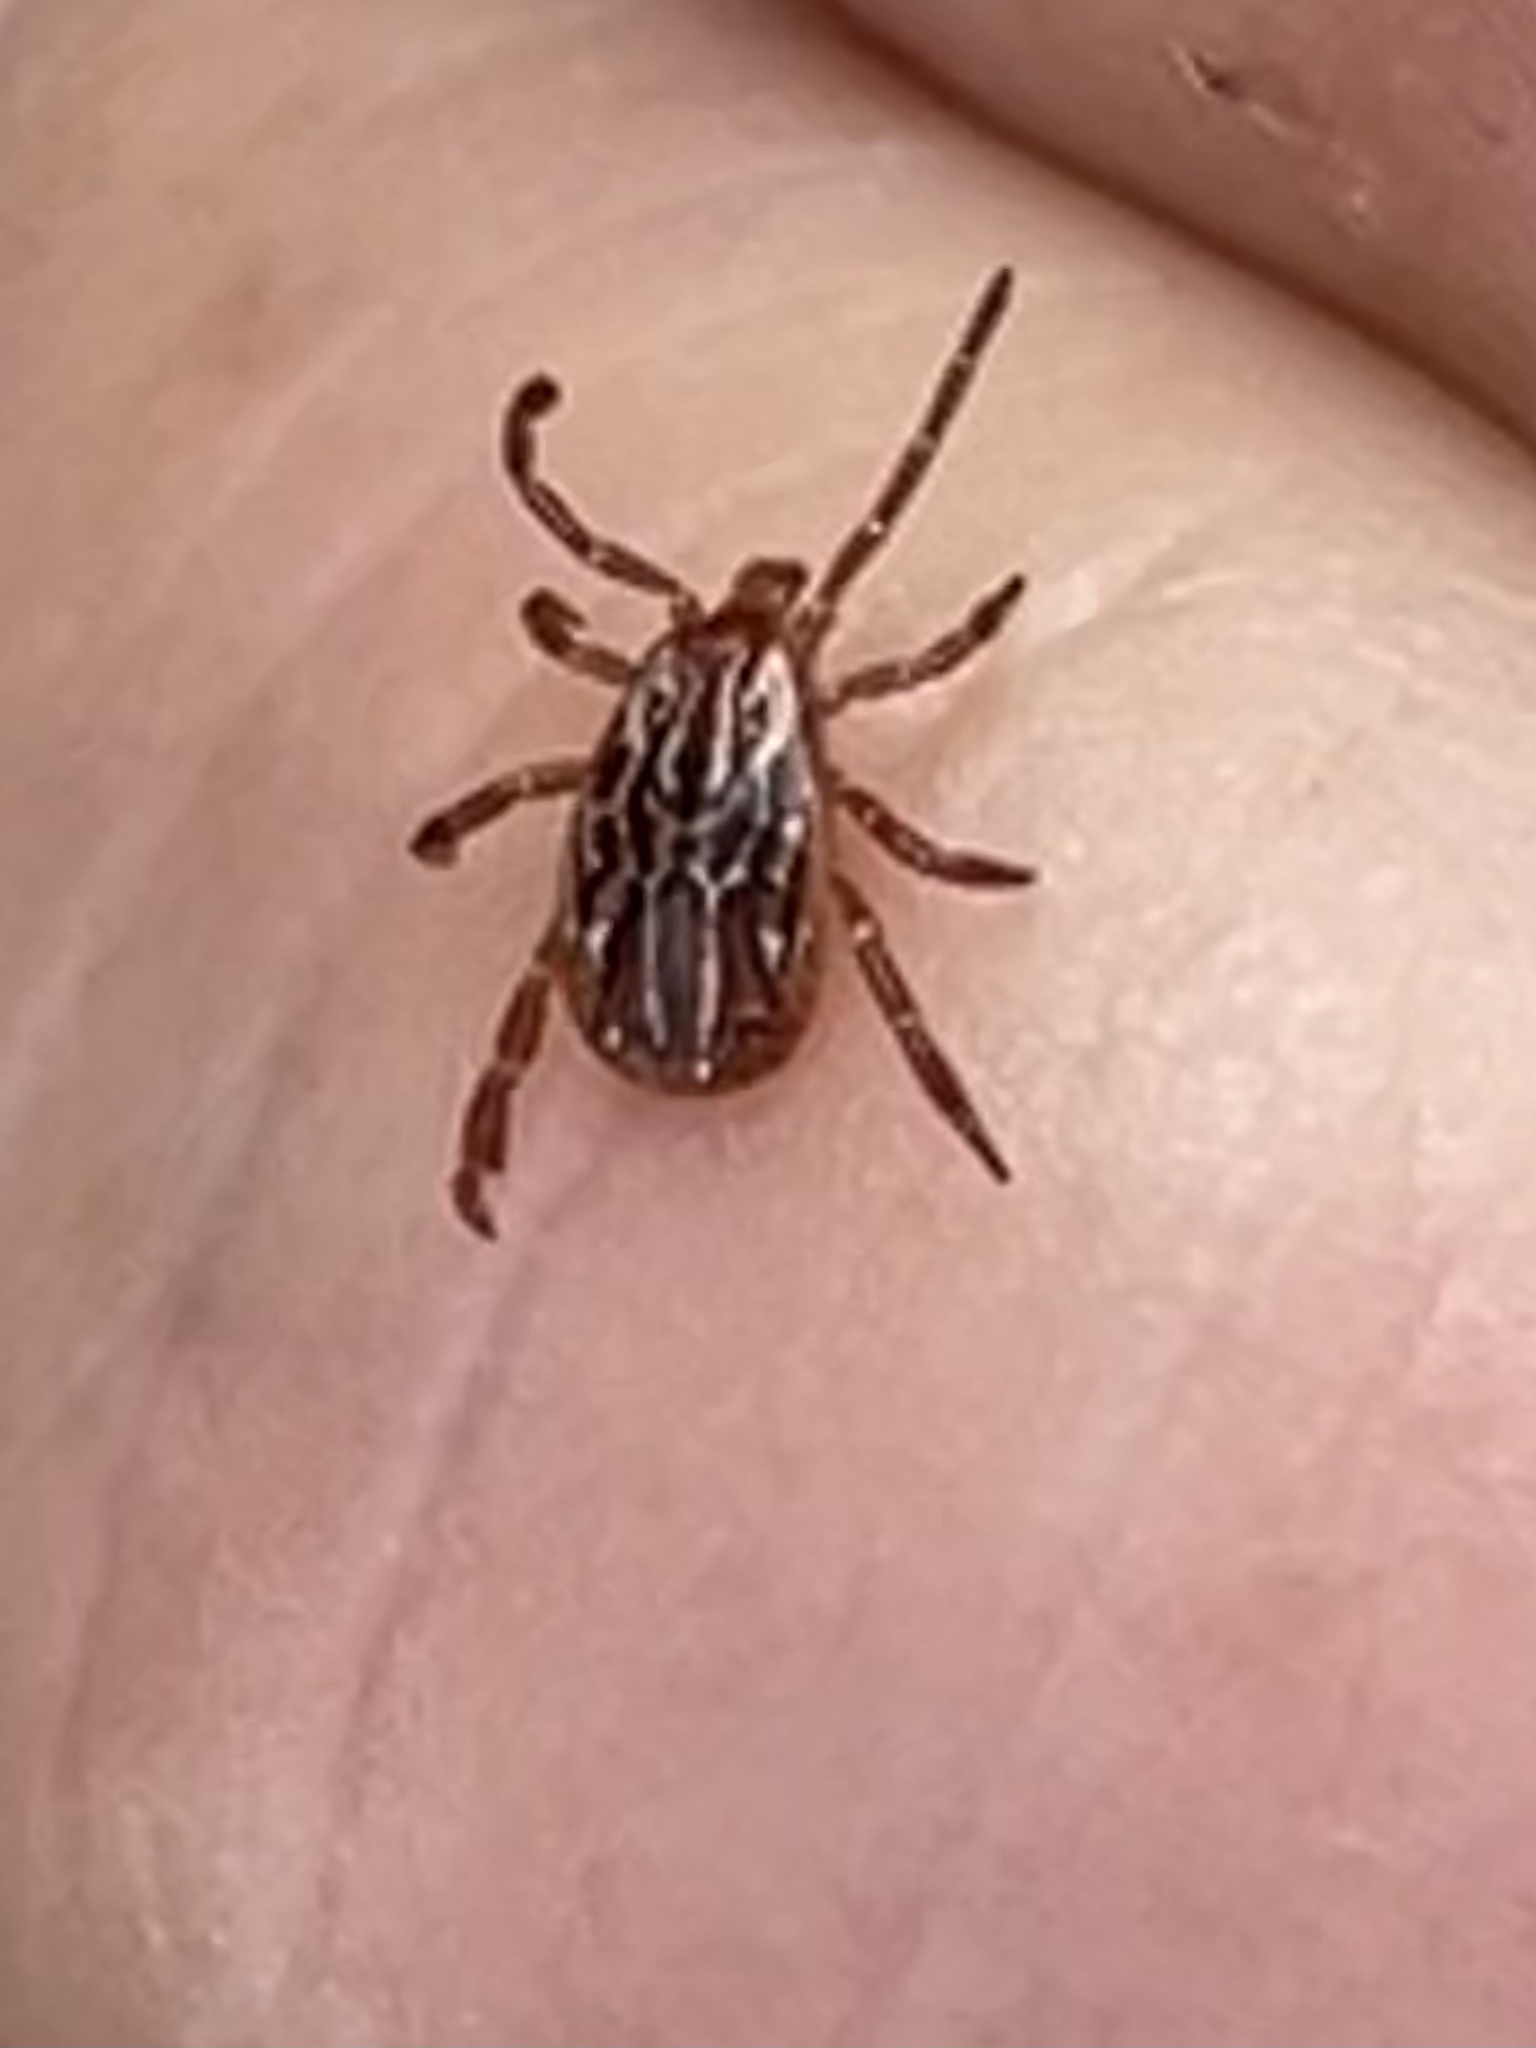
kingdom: Animalia
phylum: Arthropoda
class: Arachnida
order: Ixodida
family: Ixodidae
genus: Amblyomma
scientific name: Amblyomma maculatum
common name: Gulf coast tick
